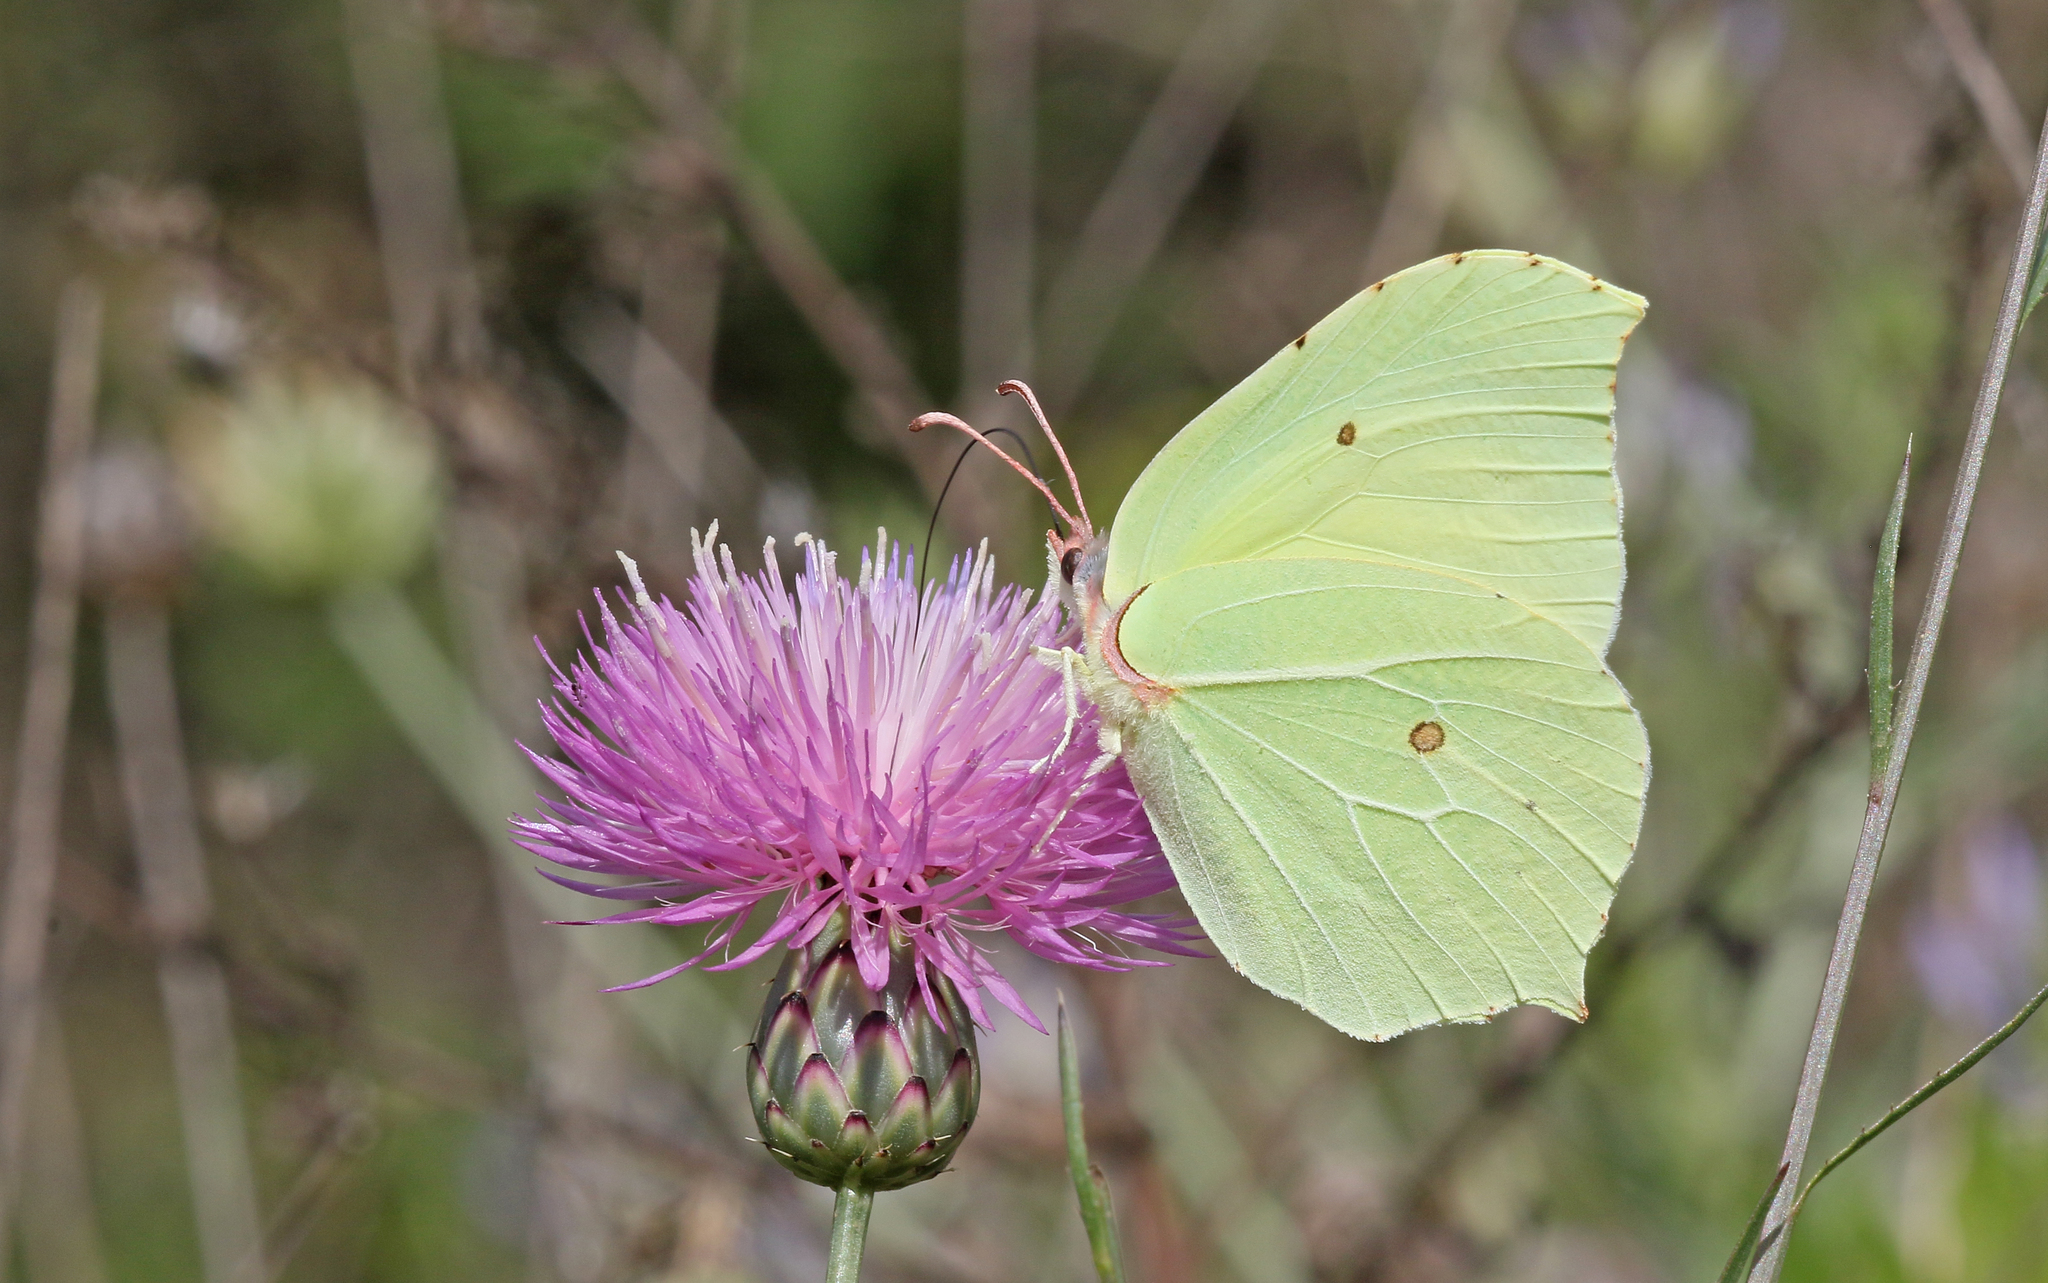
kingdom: Animalia
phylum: Arthropoda
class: Insecta
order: Lepidoptera
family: Pieridae
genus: Gonepteryx
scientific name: Gonepteryx rhamni
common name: Brimstone
